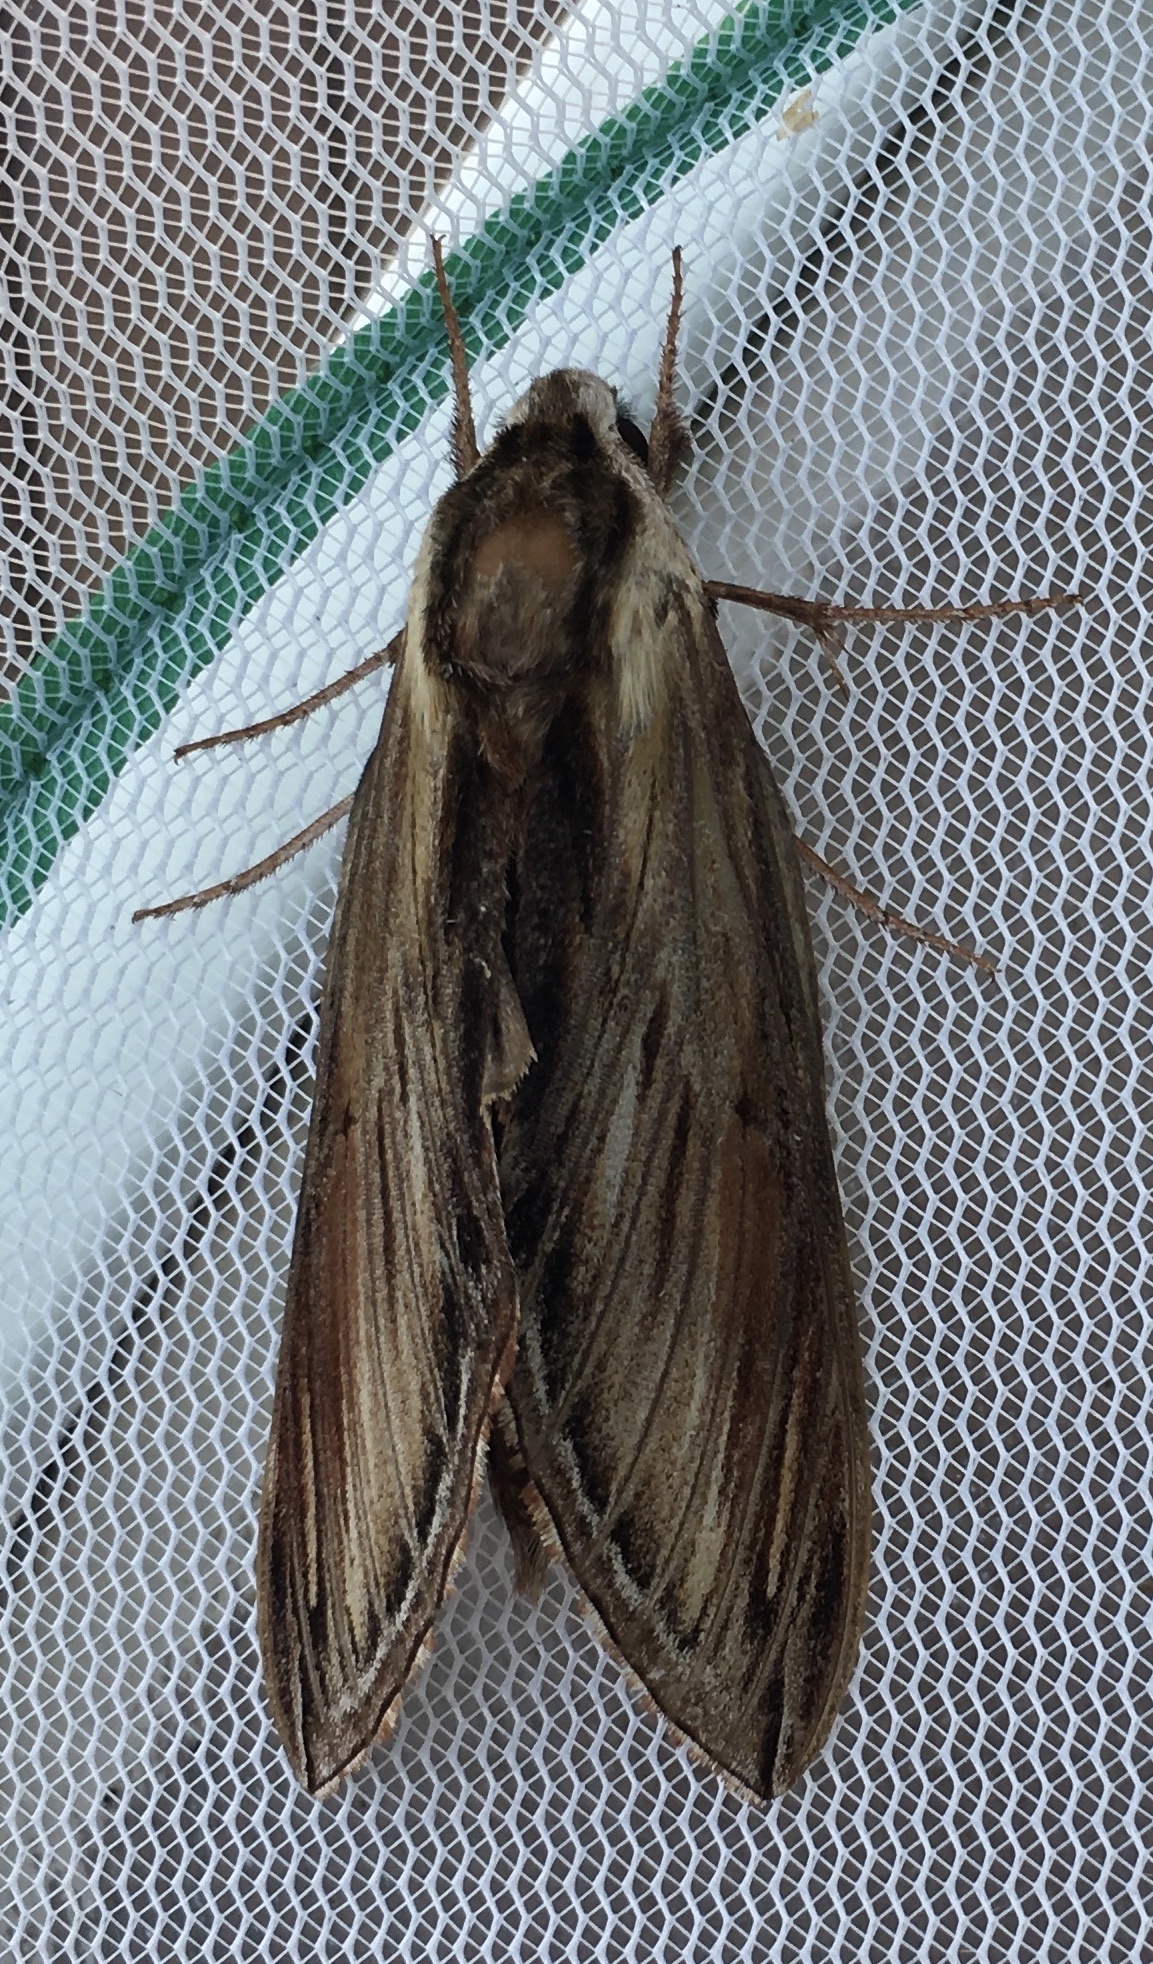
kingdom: Animalia
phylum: Arthropoda
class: Insecta
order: Lepidoptera
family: Sphingidae
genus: Sphinx
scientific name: Sphinx kalmiae
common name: Laurel sphinx
